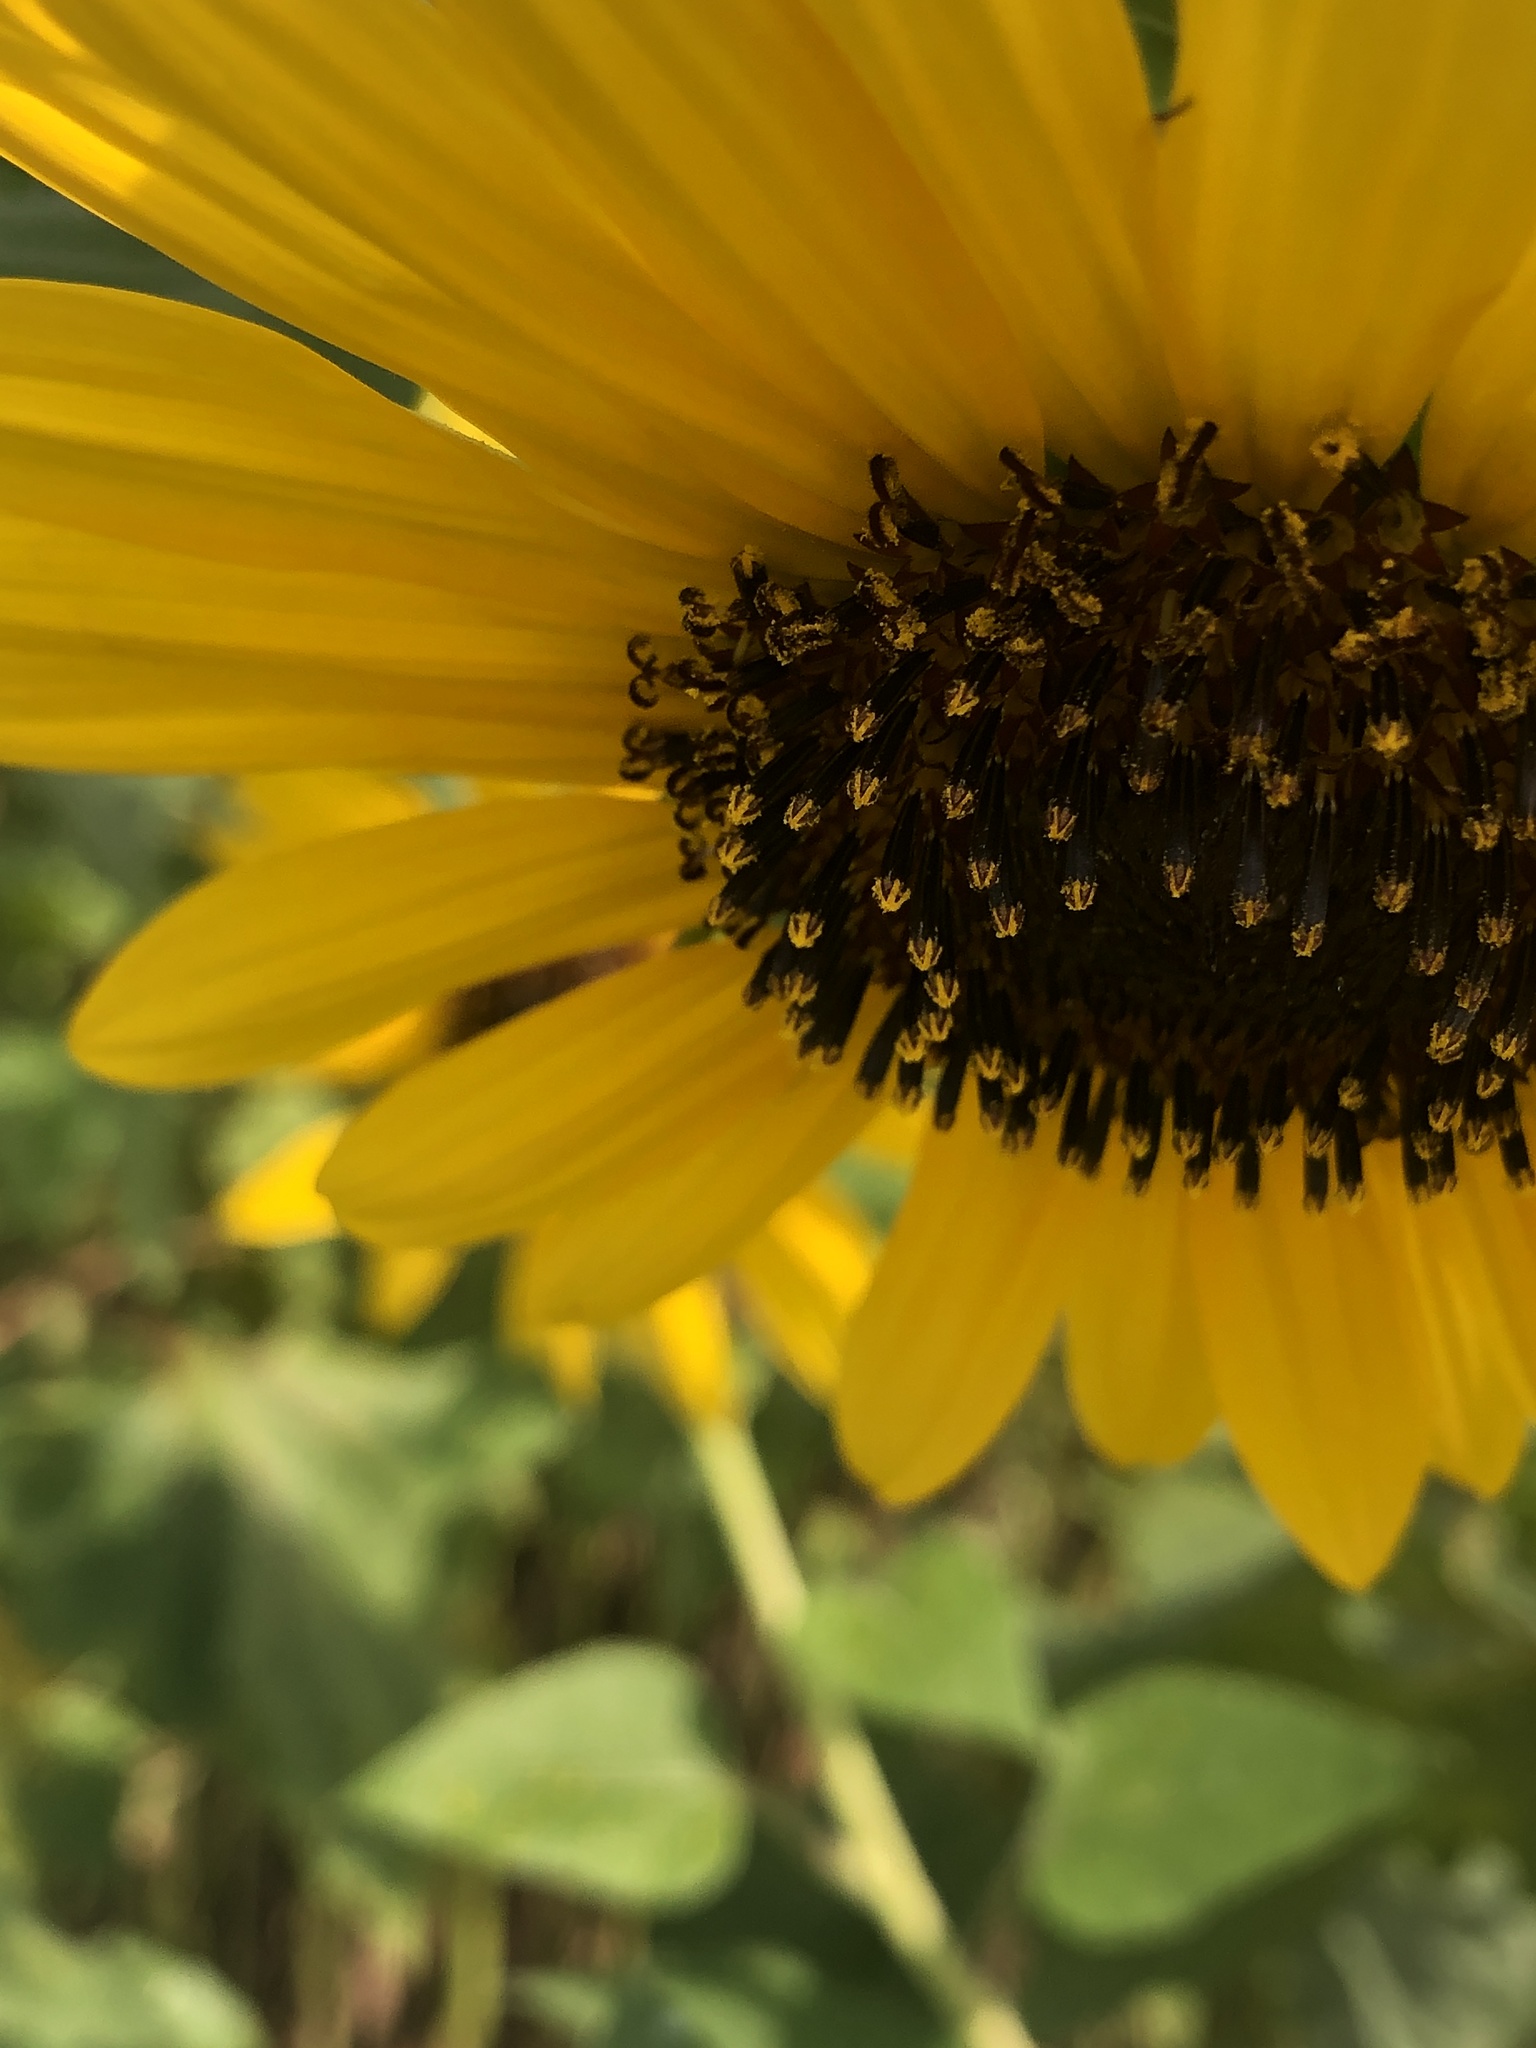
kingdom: Plantae
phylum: Tracheophyta
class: Magnoliopsida
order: Asterales
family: Asteraceae
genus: Helianthus
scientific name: Helianthus annuus
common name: Sunflower
